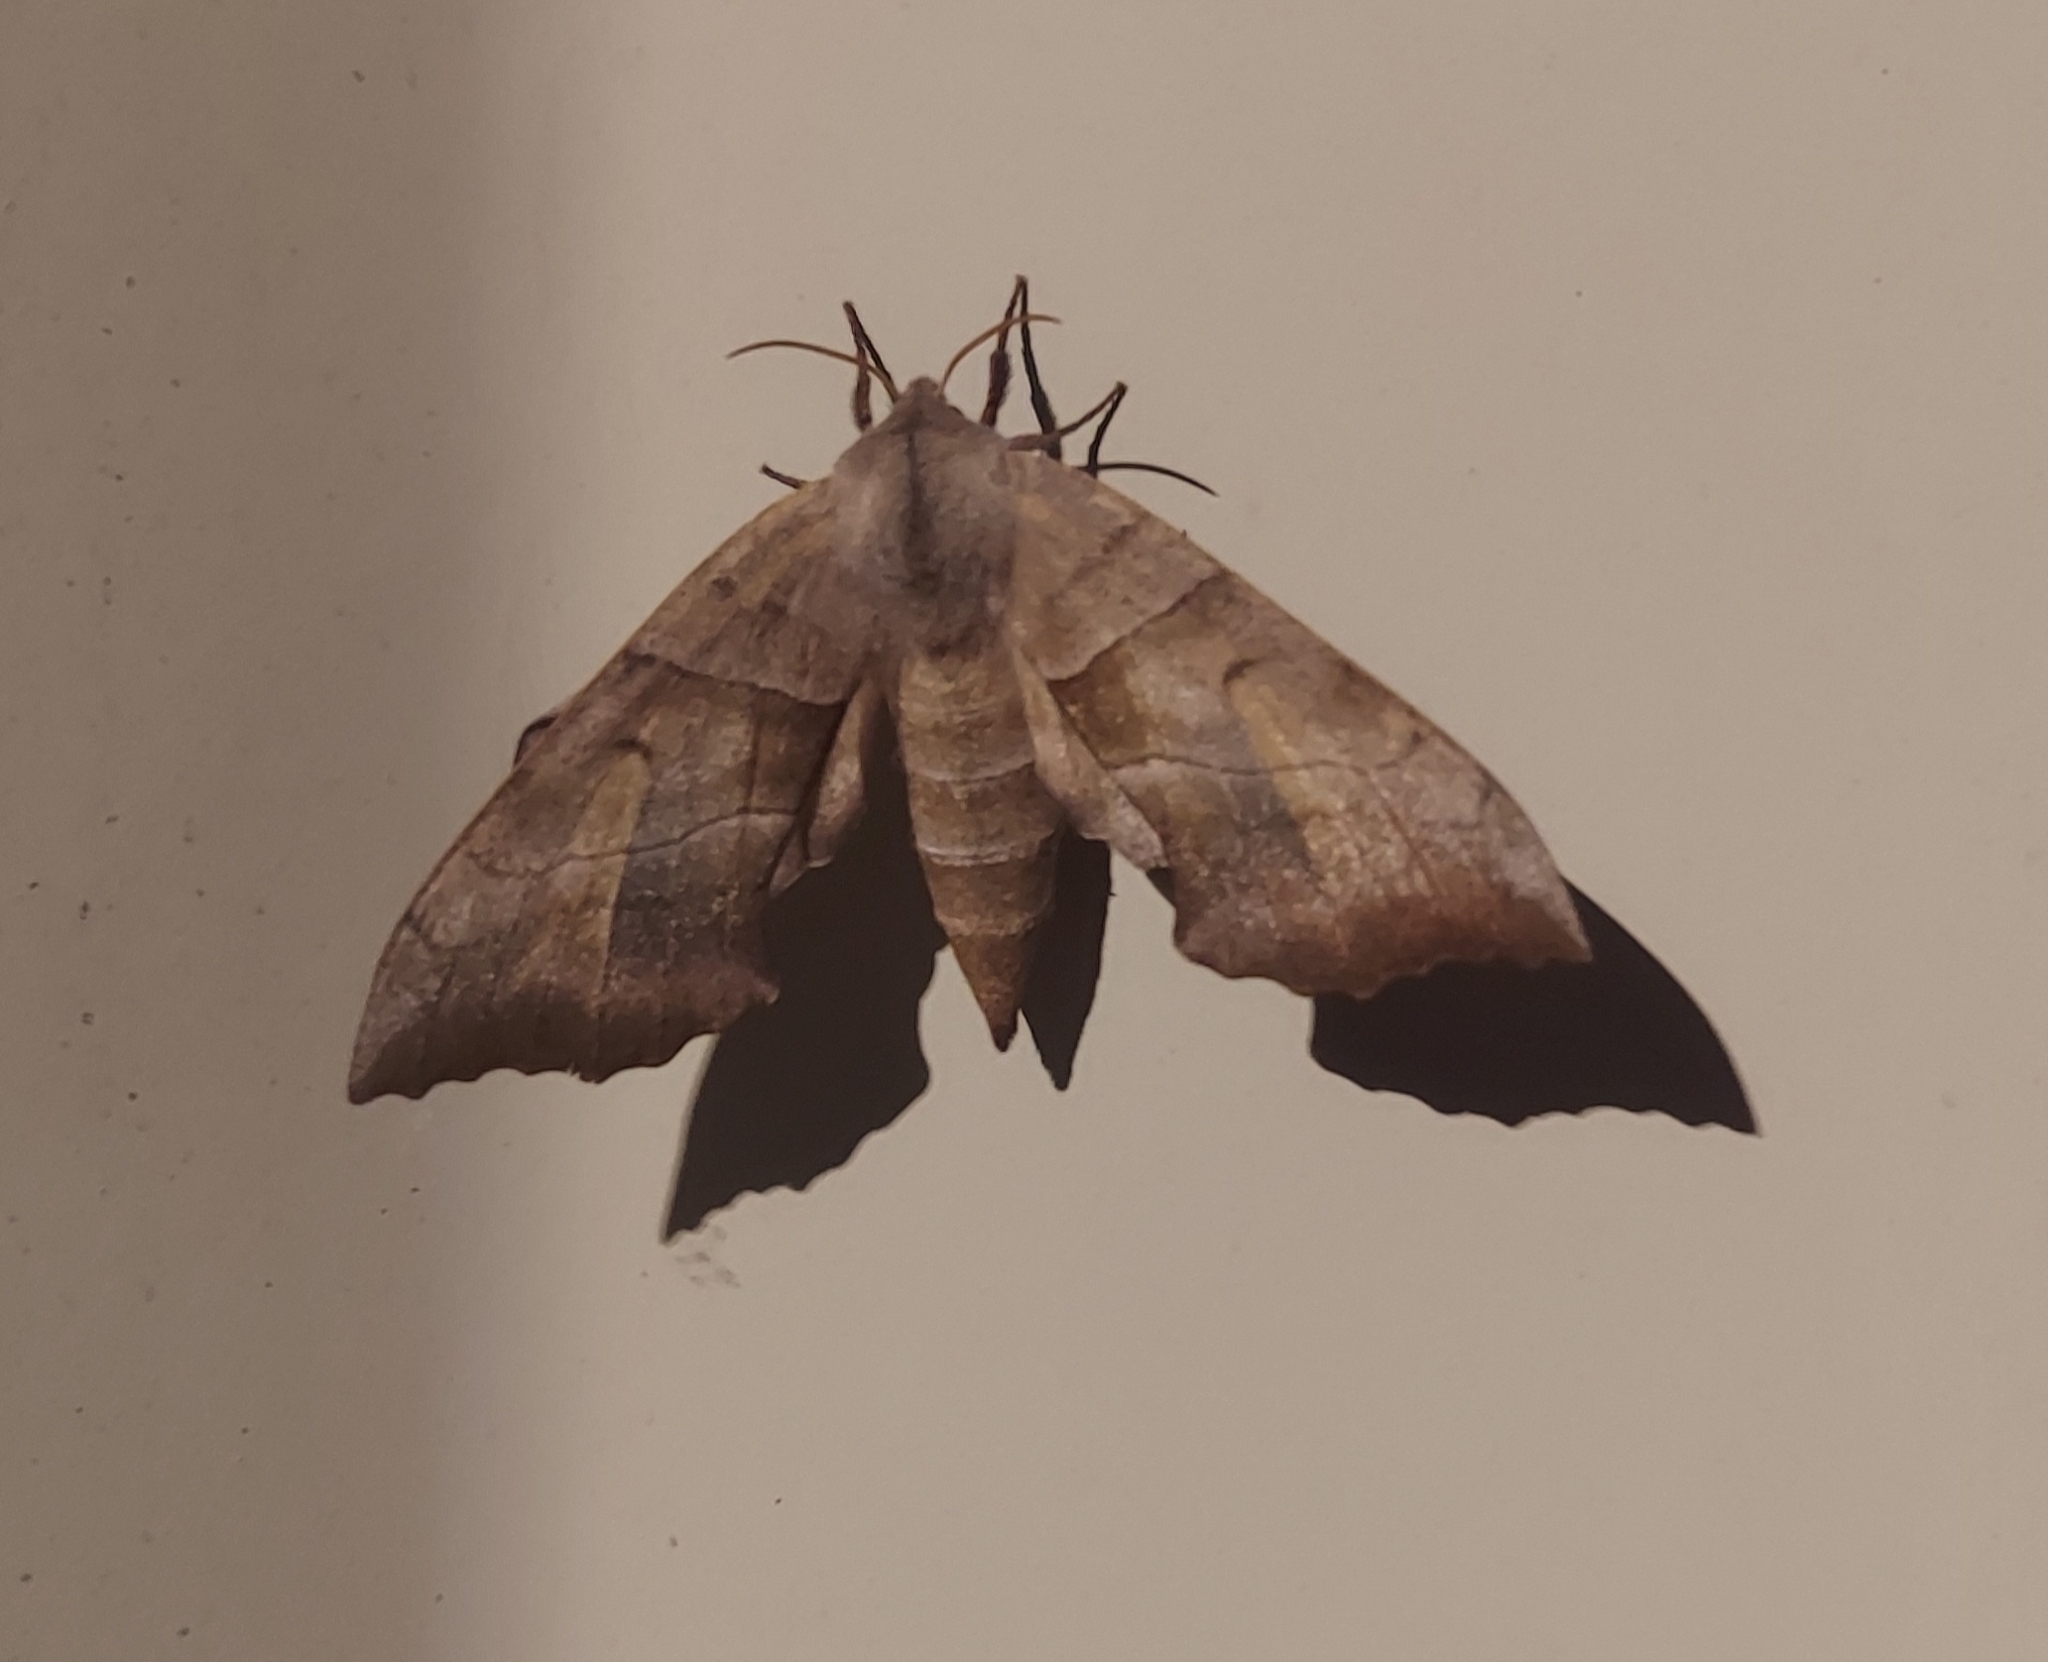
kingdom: Animalia
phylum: Arthropoda
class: Insecta
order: Lepidoptera
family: Sphingidae
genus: Amorpha
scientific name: Amorpha juglandis
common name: Walnut sphinx
